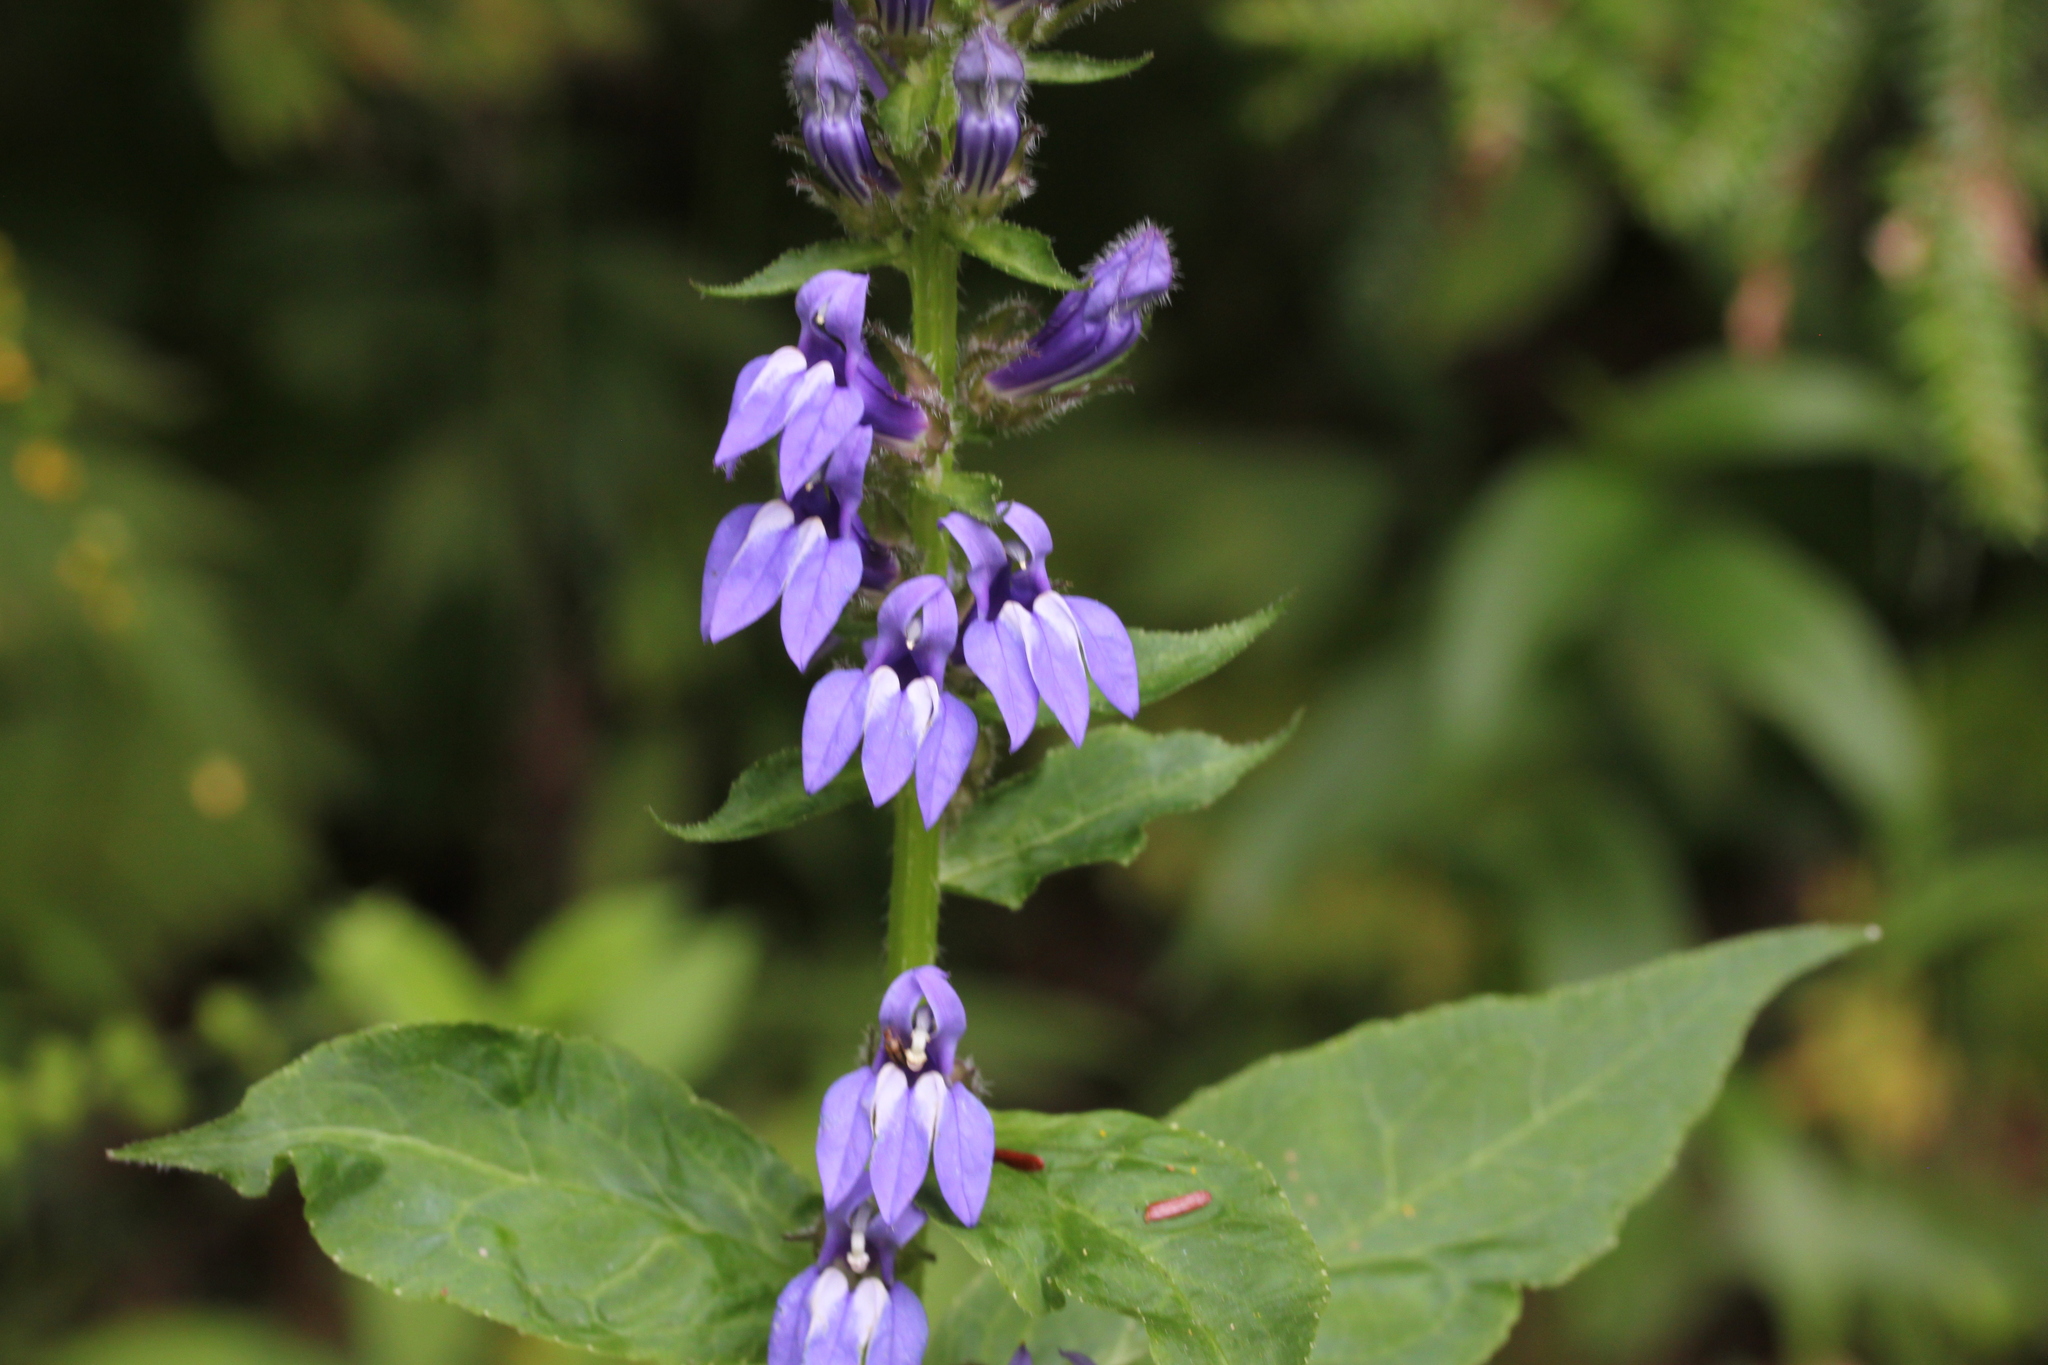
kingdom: Plantae
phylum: Tracheophyta
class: Magnoliopsida
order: Asterales
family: Campanulaceae
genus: Lobelia
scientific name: Lobelia siphilitica
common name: Great lobelia
